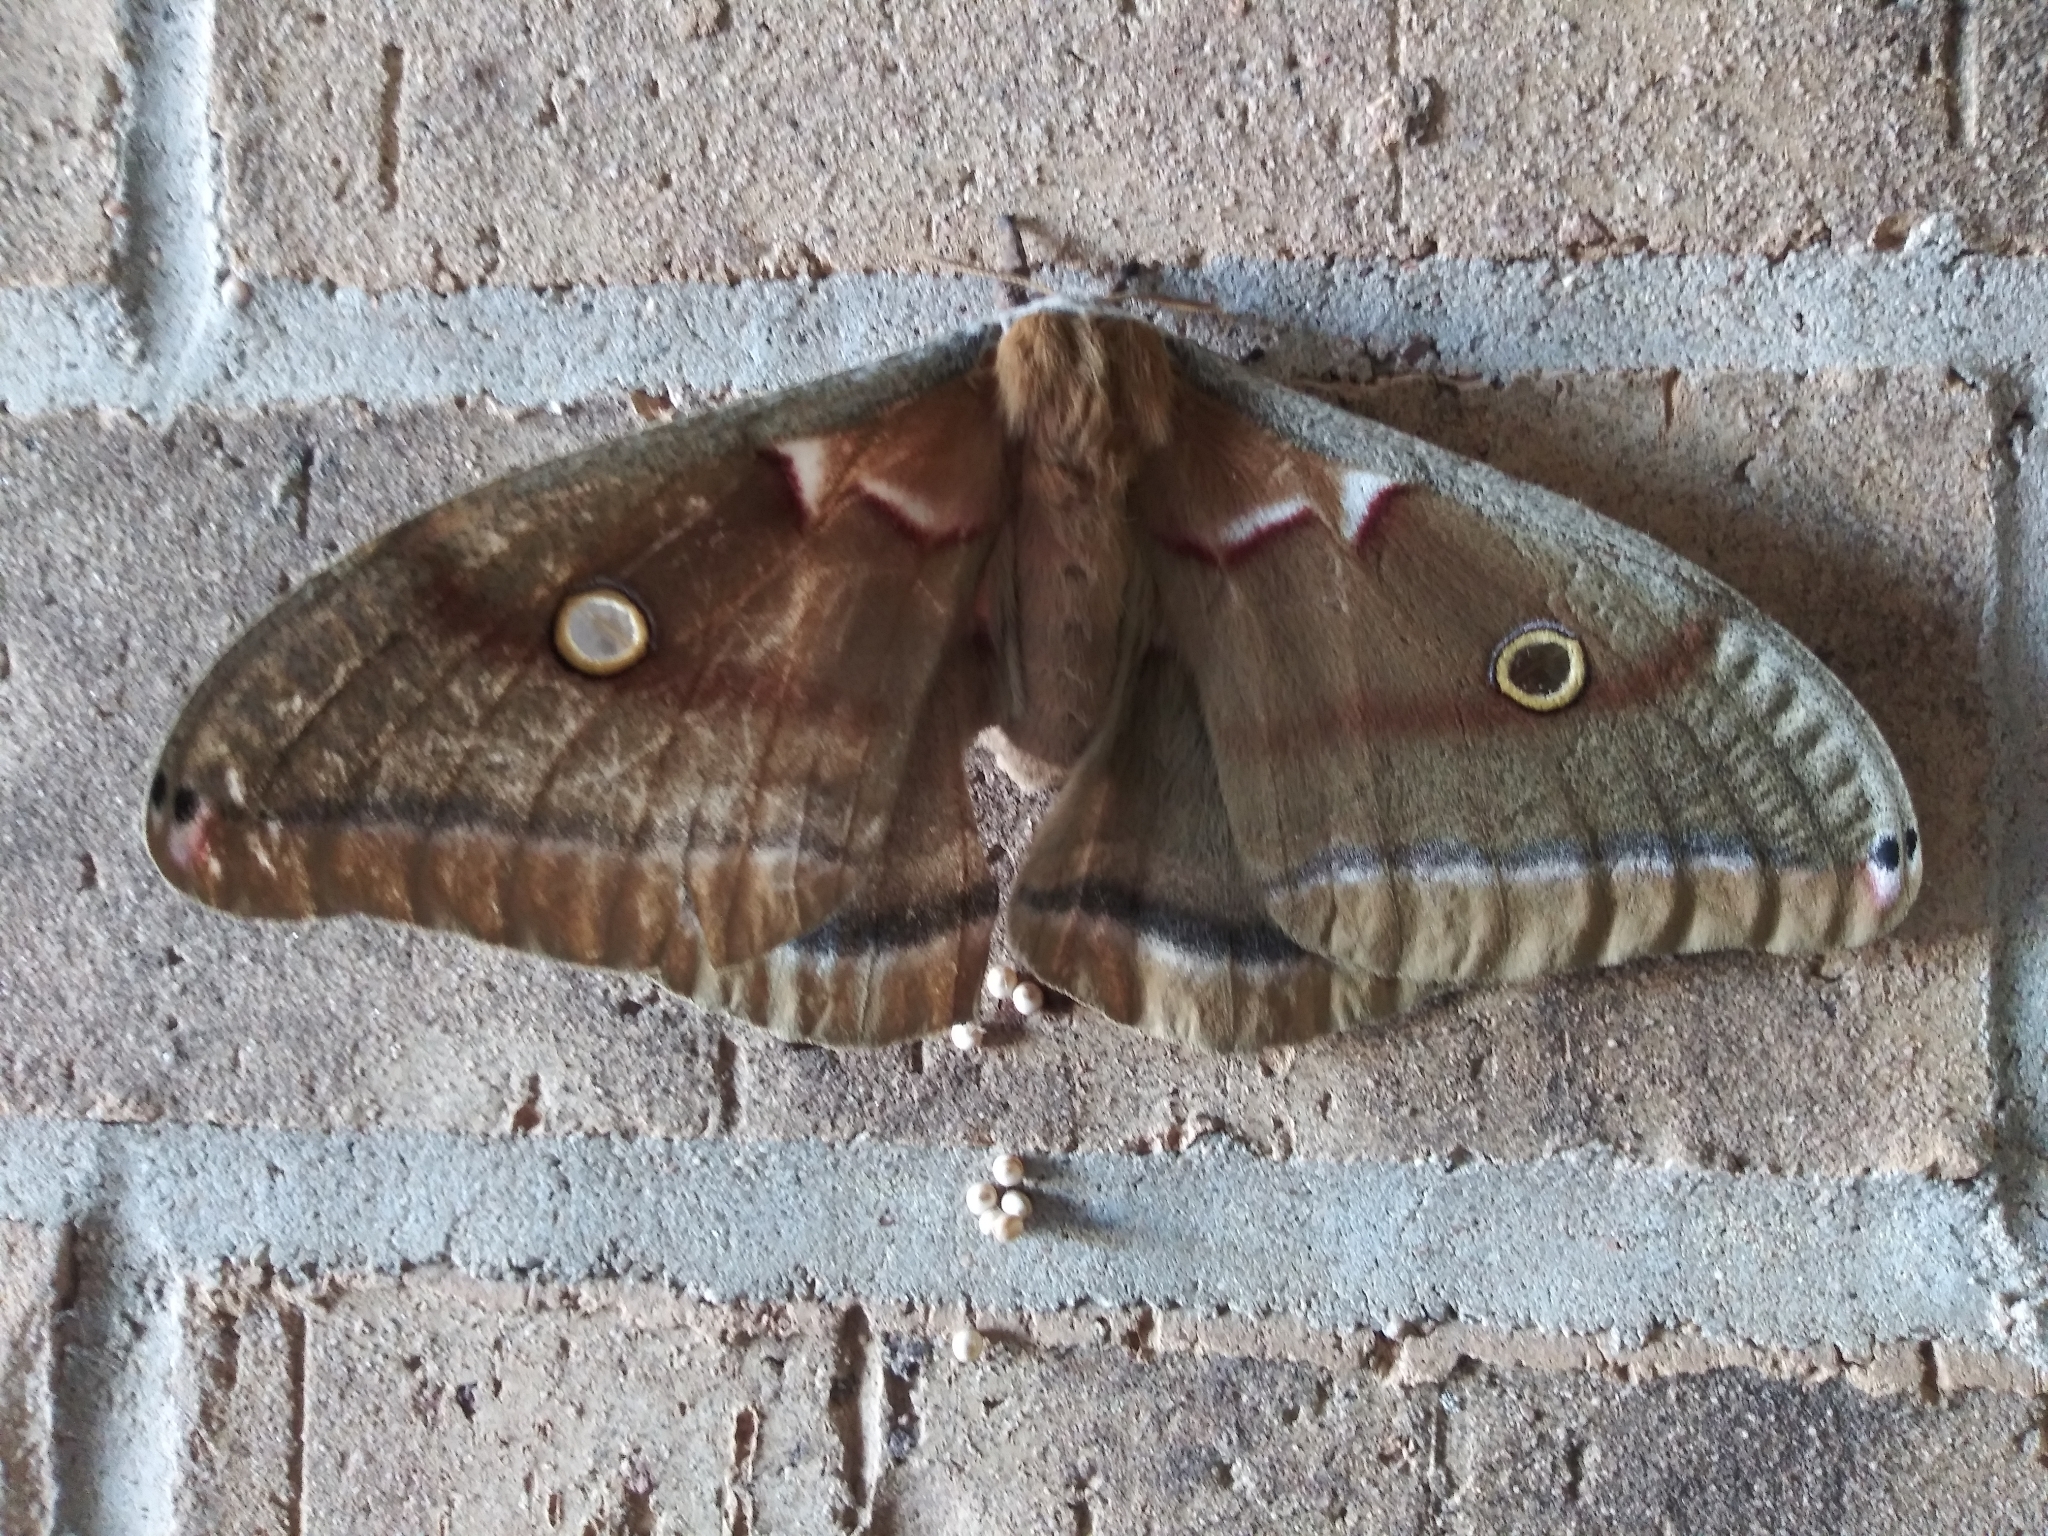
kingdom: Animalia
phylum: Arthropoda
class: Insecta
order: Lepidoptera
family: Saturniidae
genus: Antheraea
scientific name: Antheraea polyphemus
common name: Polyphemus moth
